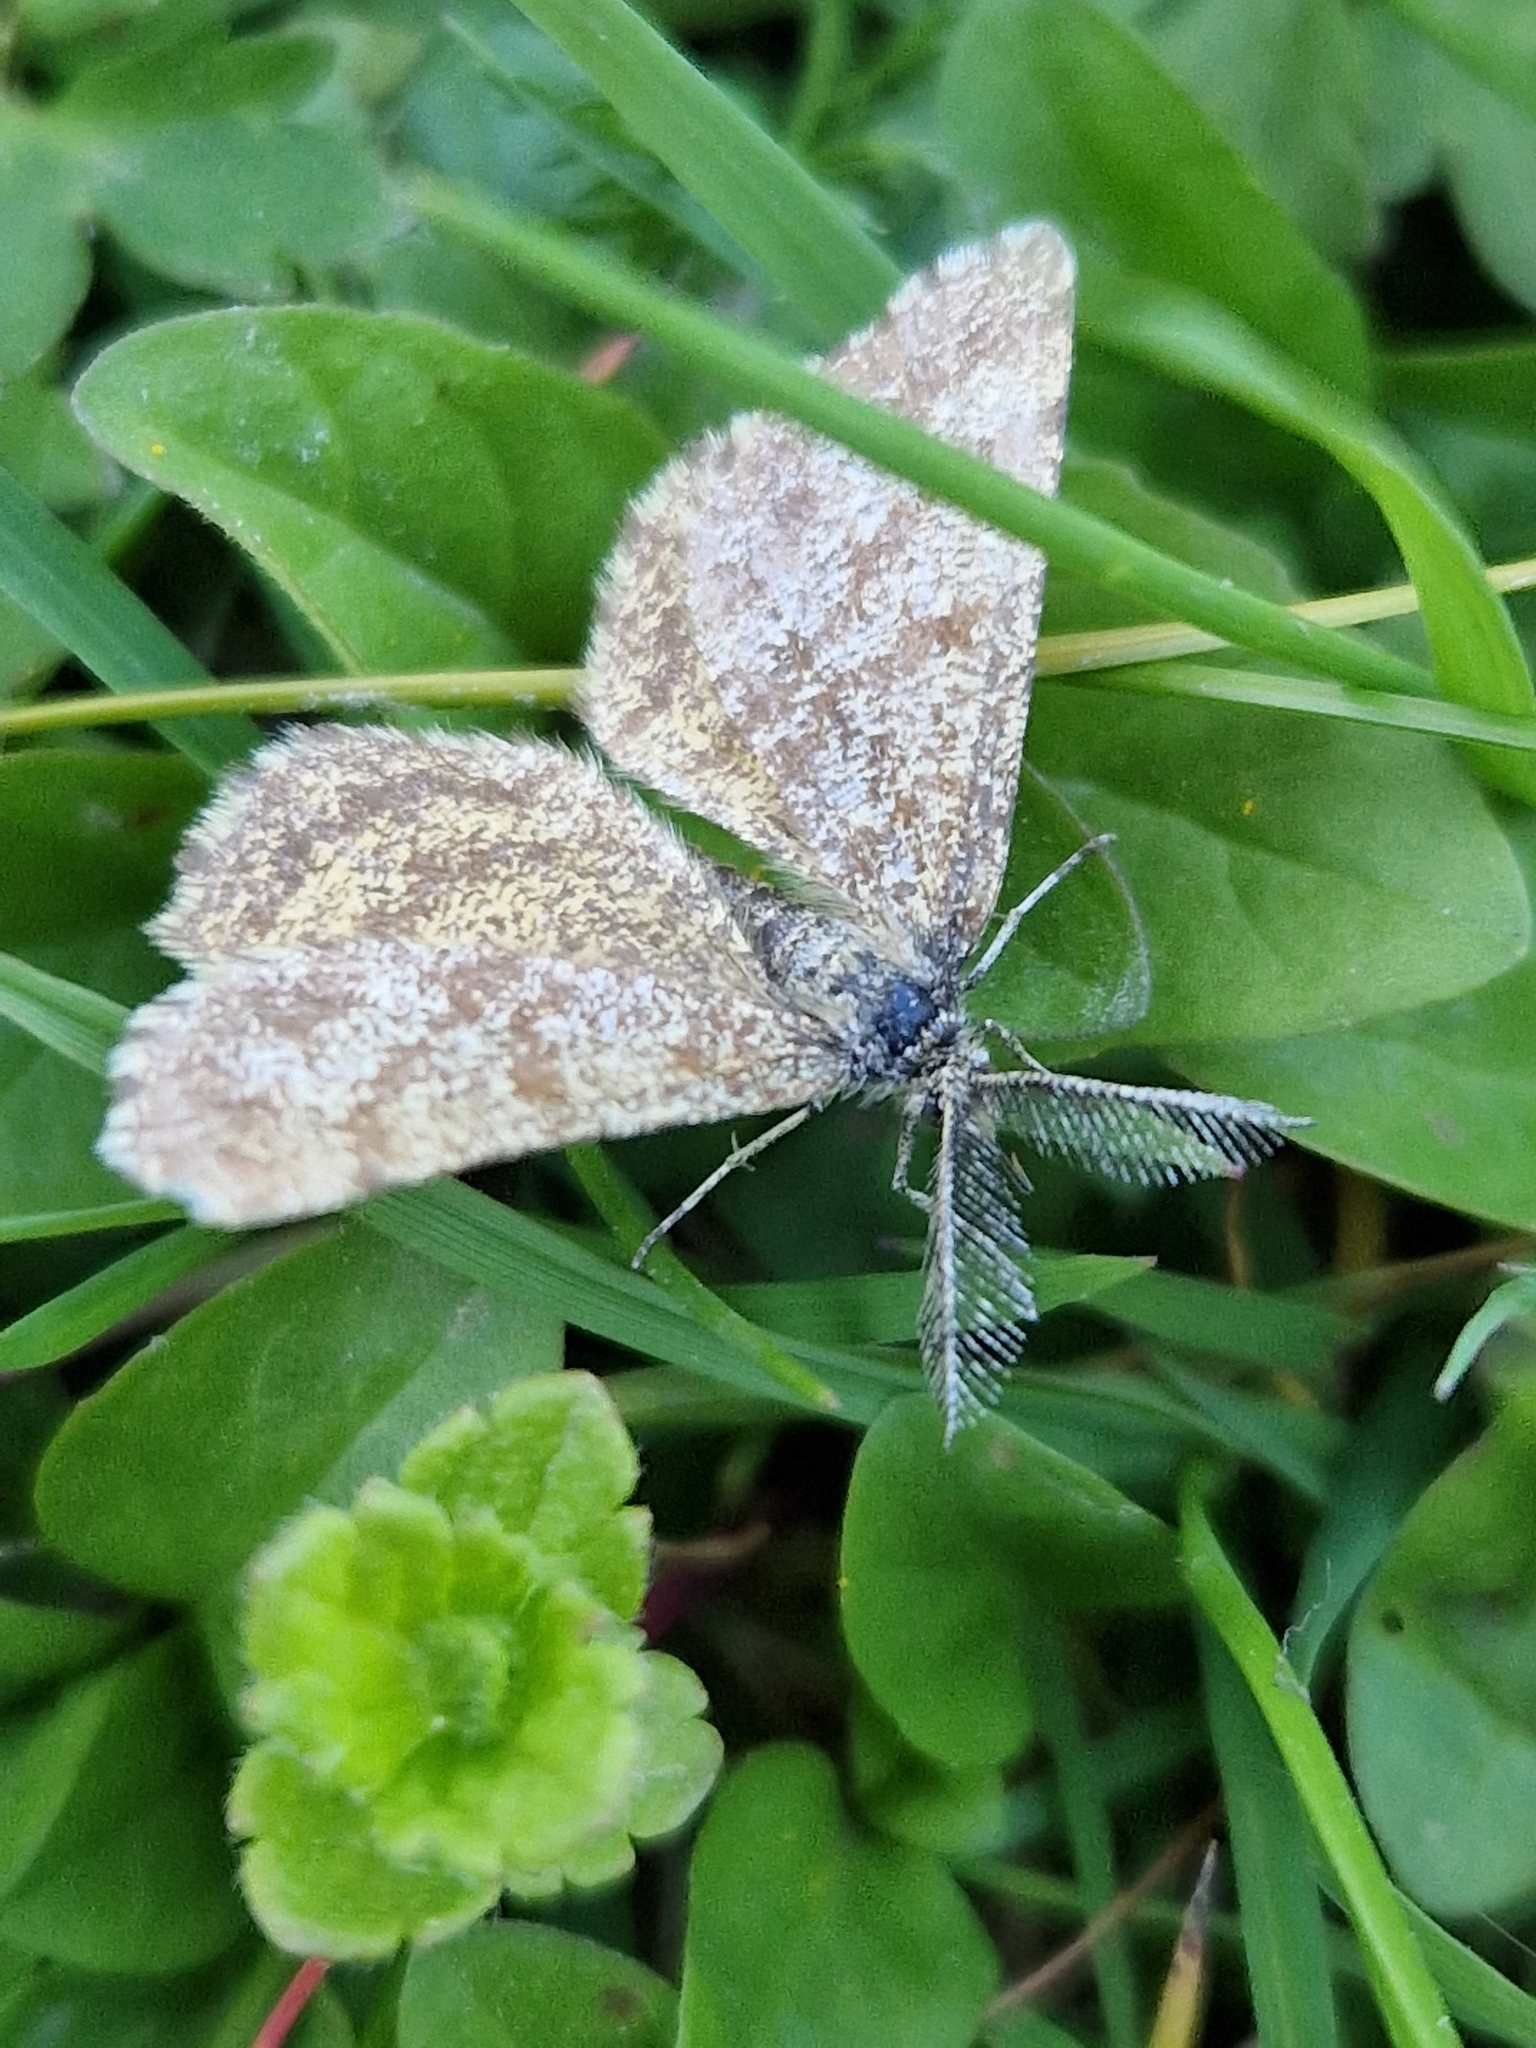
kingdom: Animalia
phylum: Arthropoda
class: Insecta
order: Lepidoptera
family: Geometridae
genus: Ematurga
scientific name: Ematurga atomaria
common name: Common heath
